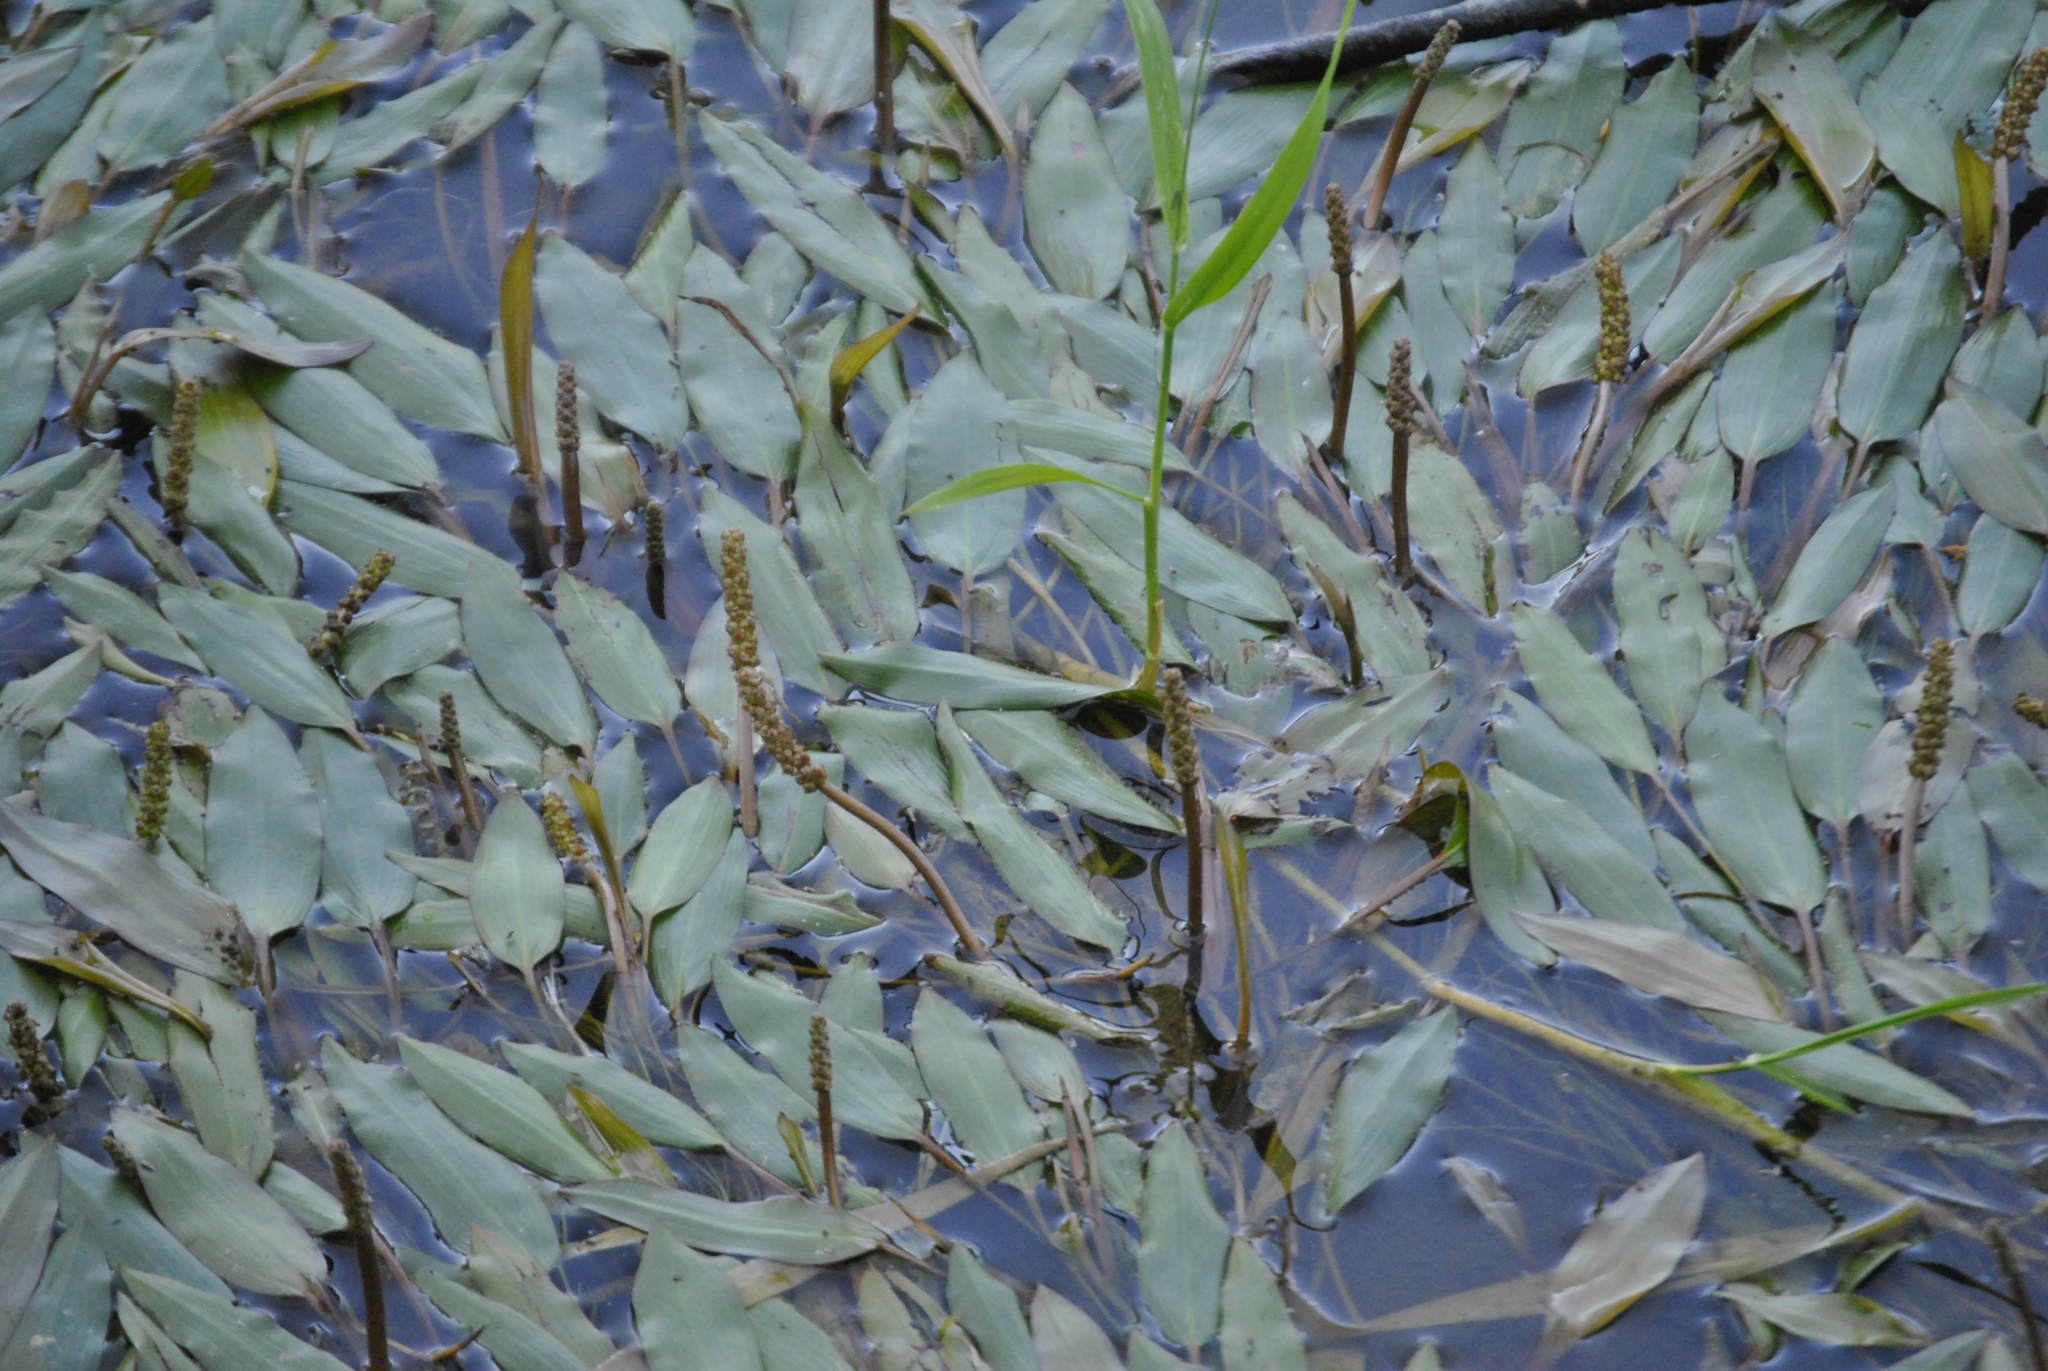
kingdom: Plantae
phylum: Tracheophyta
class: Liliopsida
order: Alismatales
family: Potamogetonaceae
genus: Potamogeton
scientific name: Potamogeton nodosus
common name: Loddon pondweed
